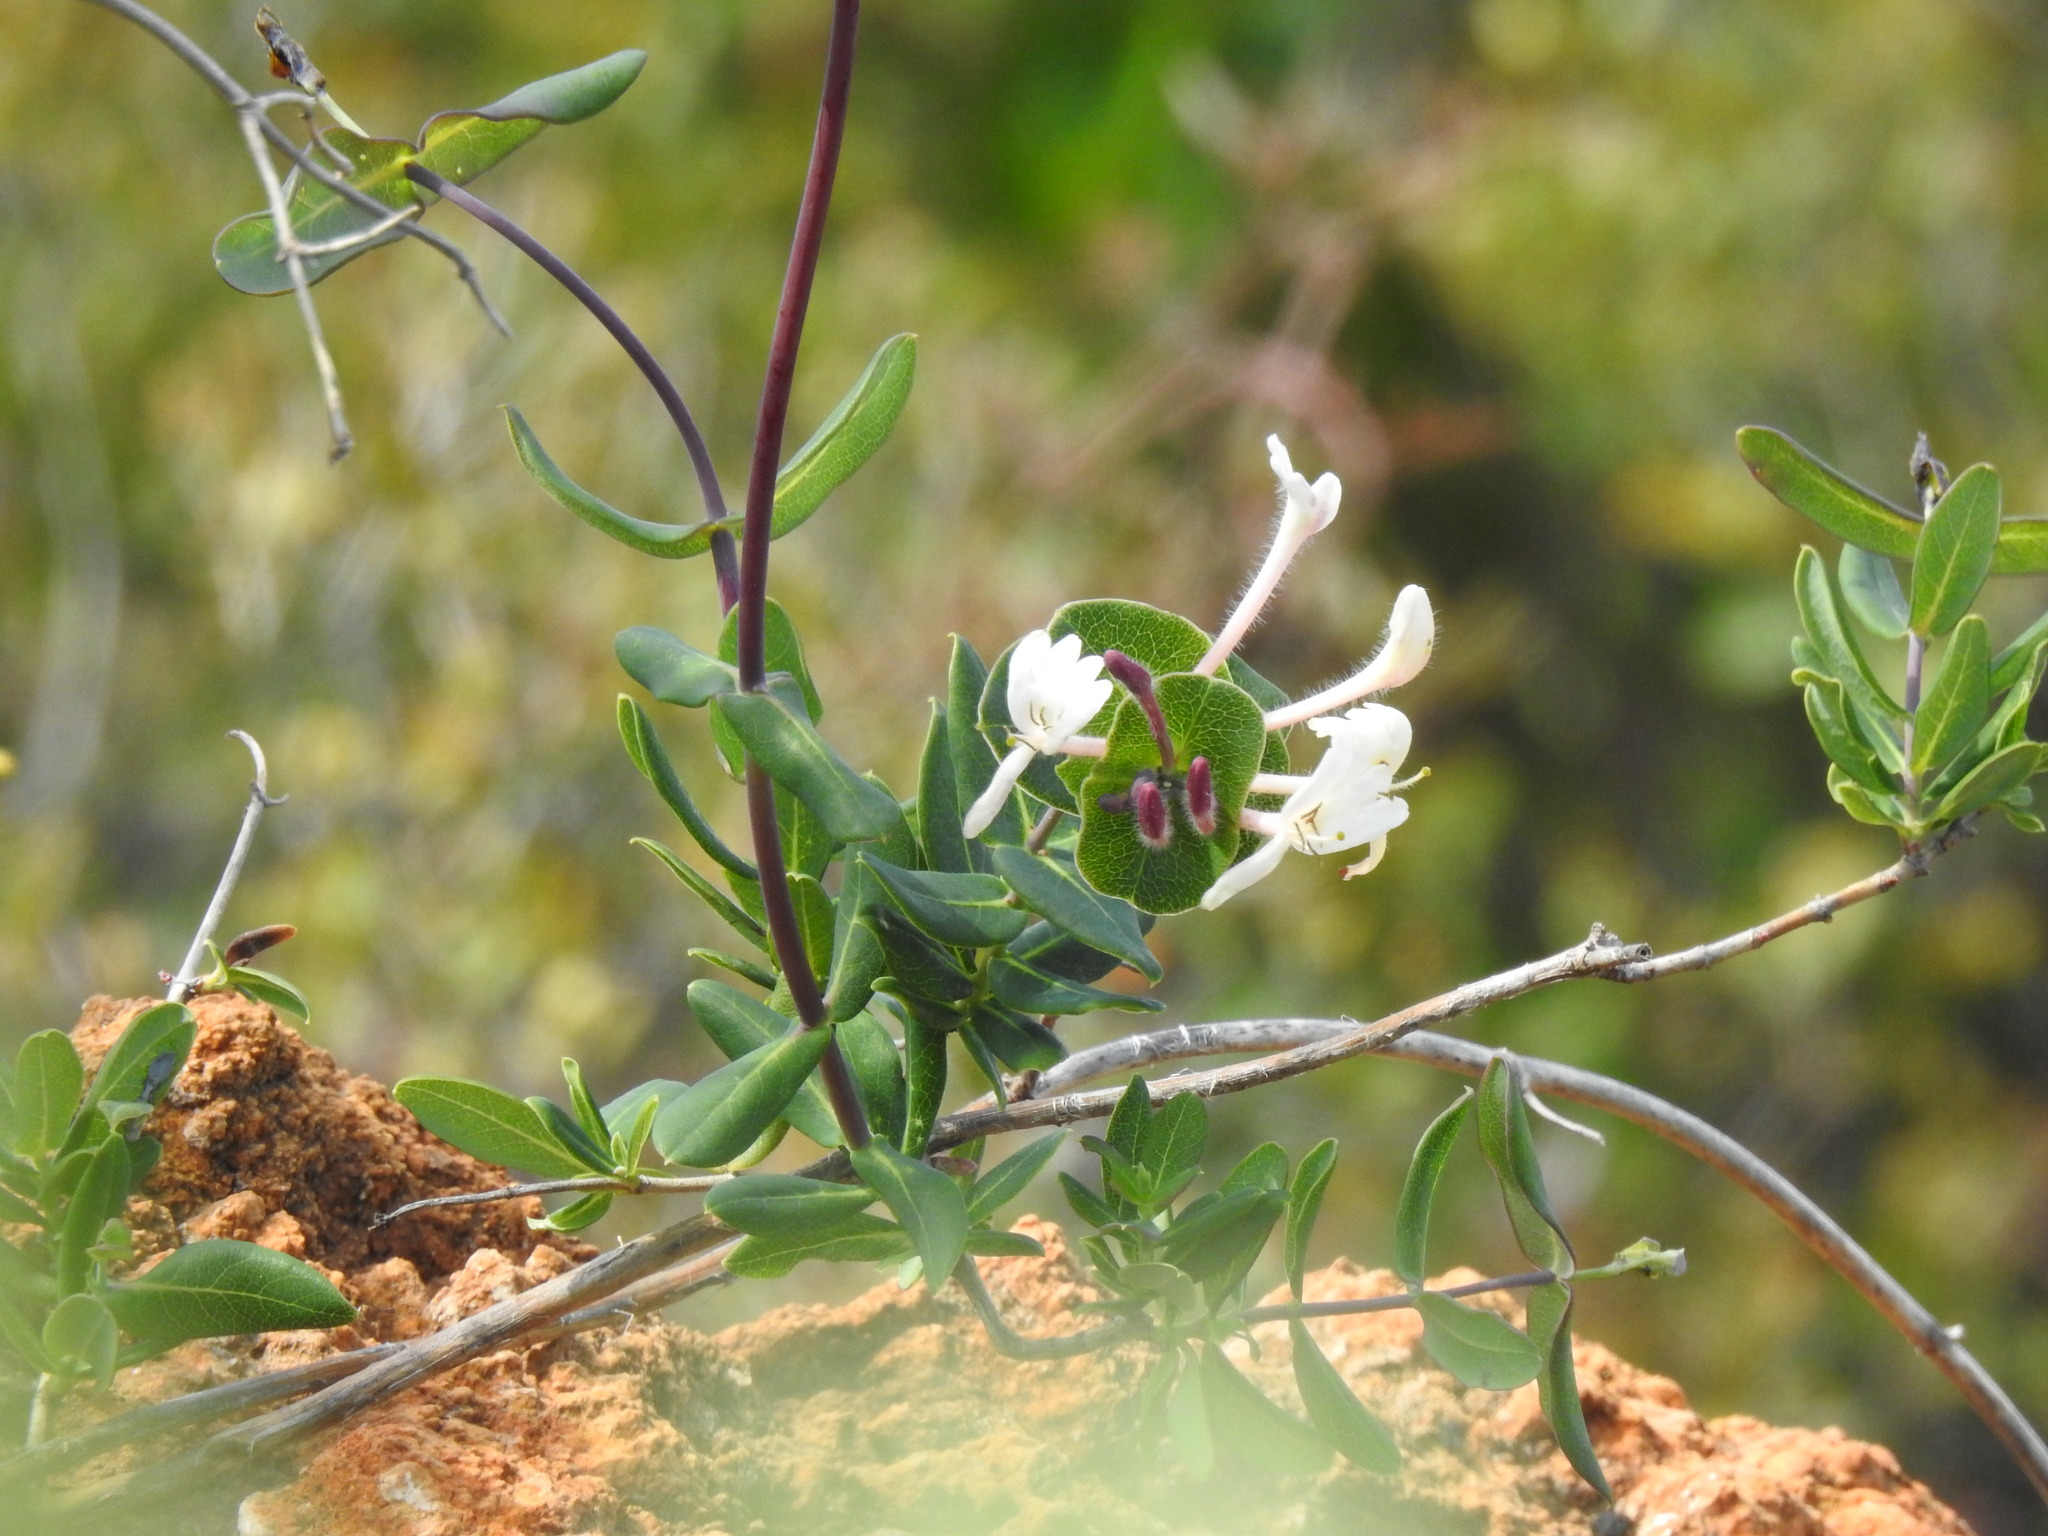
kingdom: Plantae
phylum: Tracheophyta
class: Magnoliopsida
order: Dipsacales
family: Caprifoliaceae
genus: Lonicera
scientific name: Lonicera implexa
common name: Minorca honeysuckle
